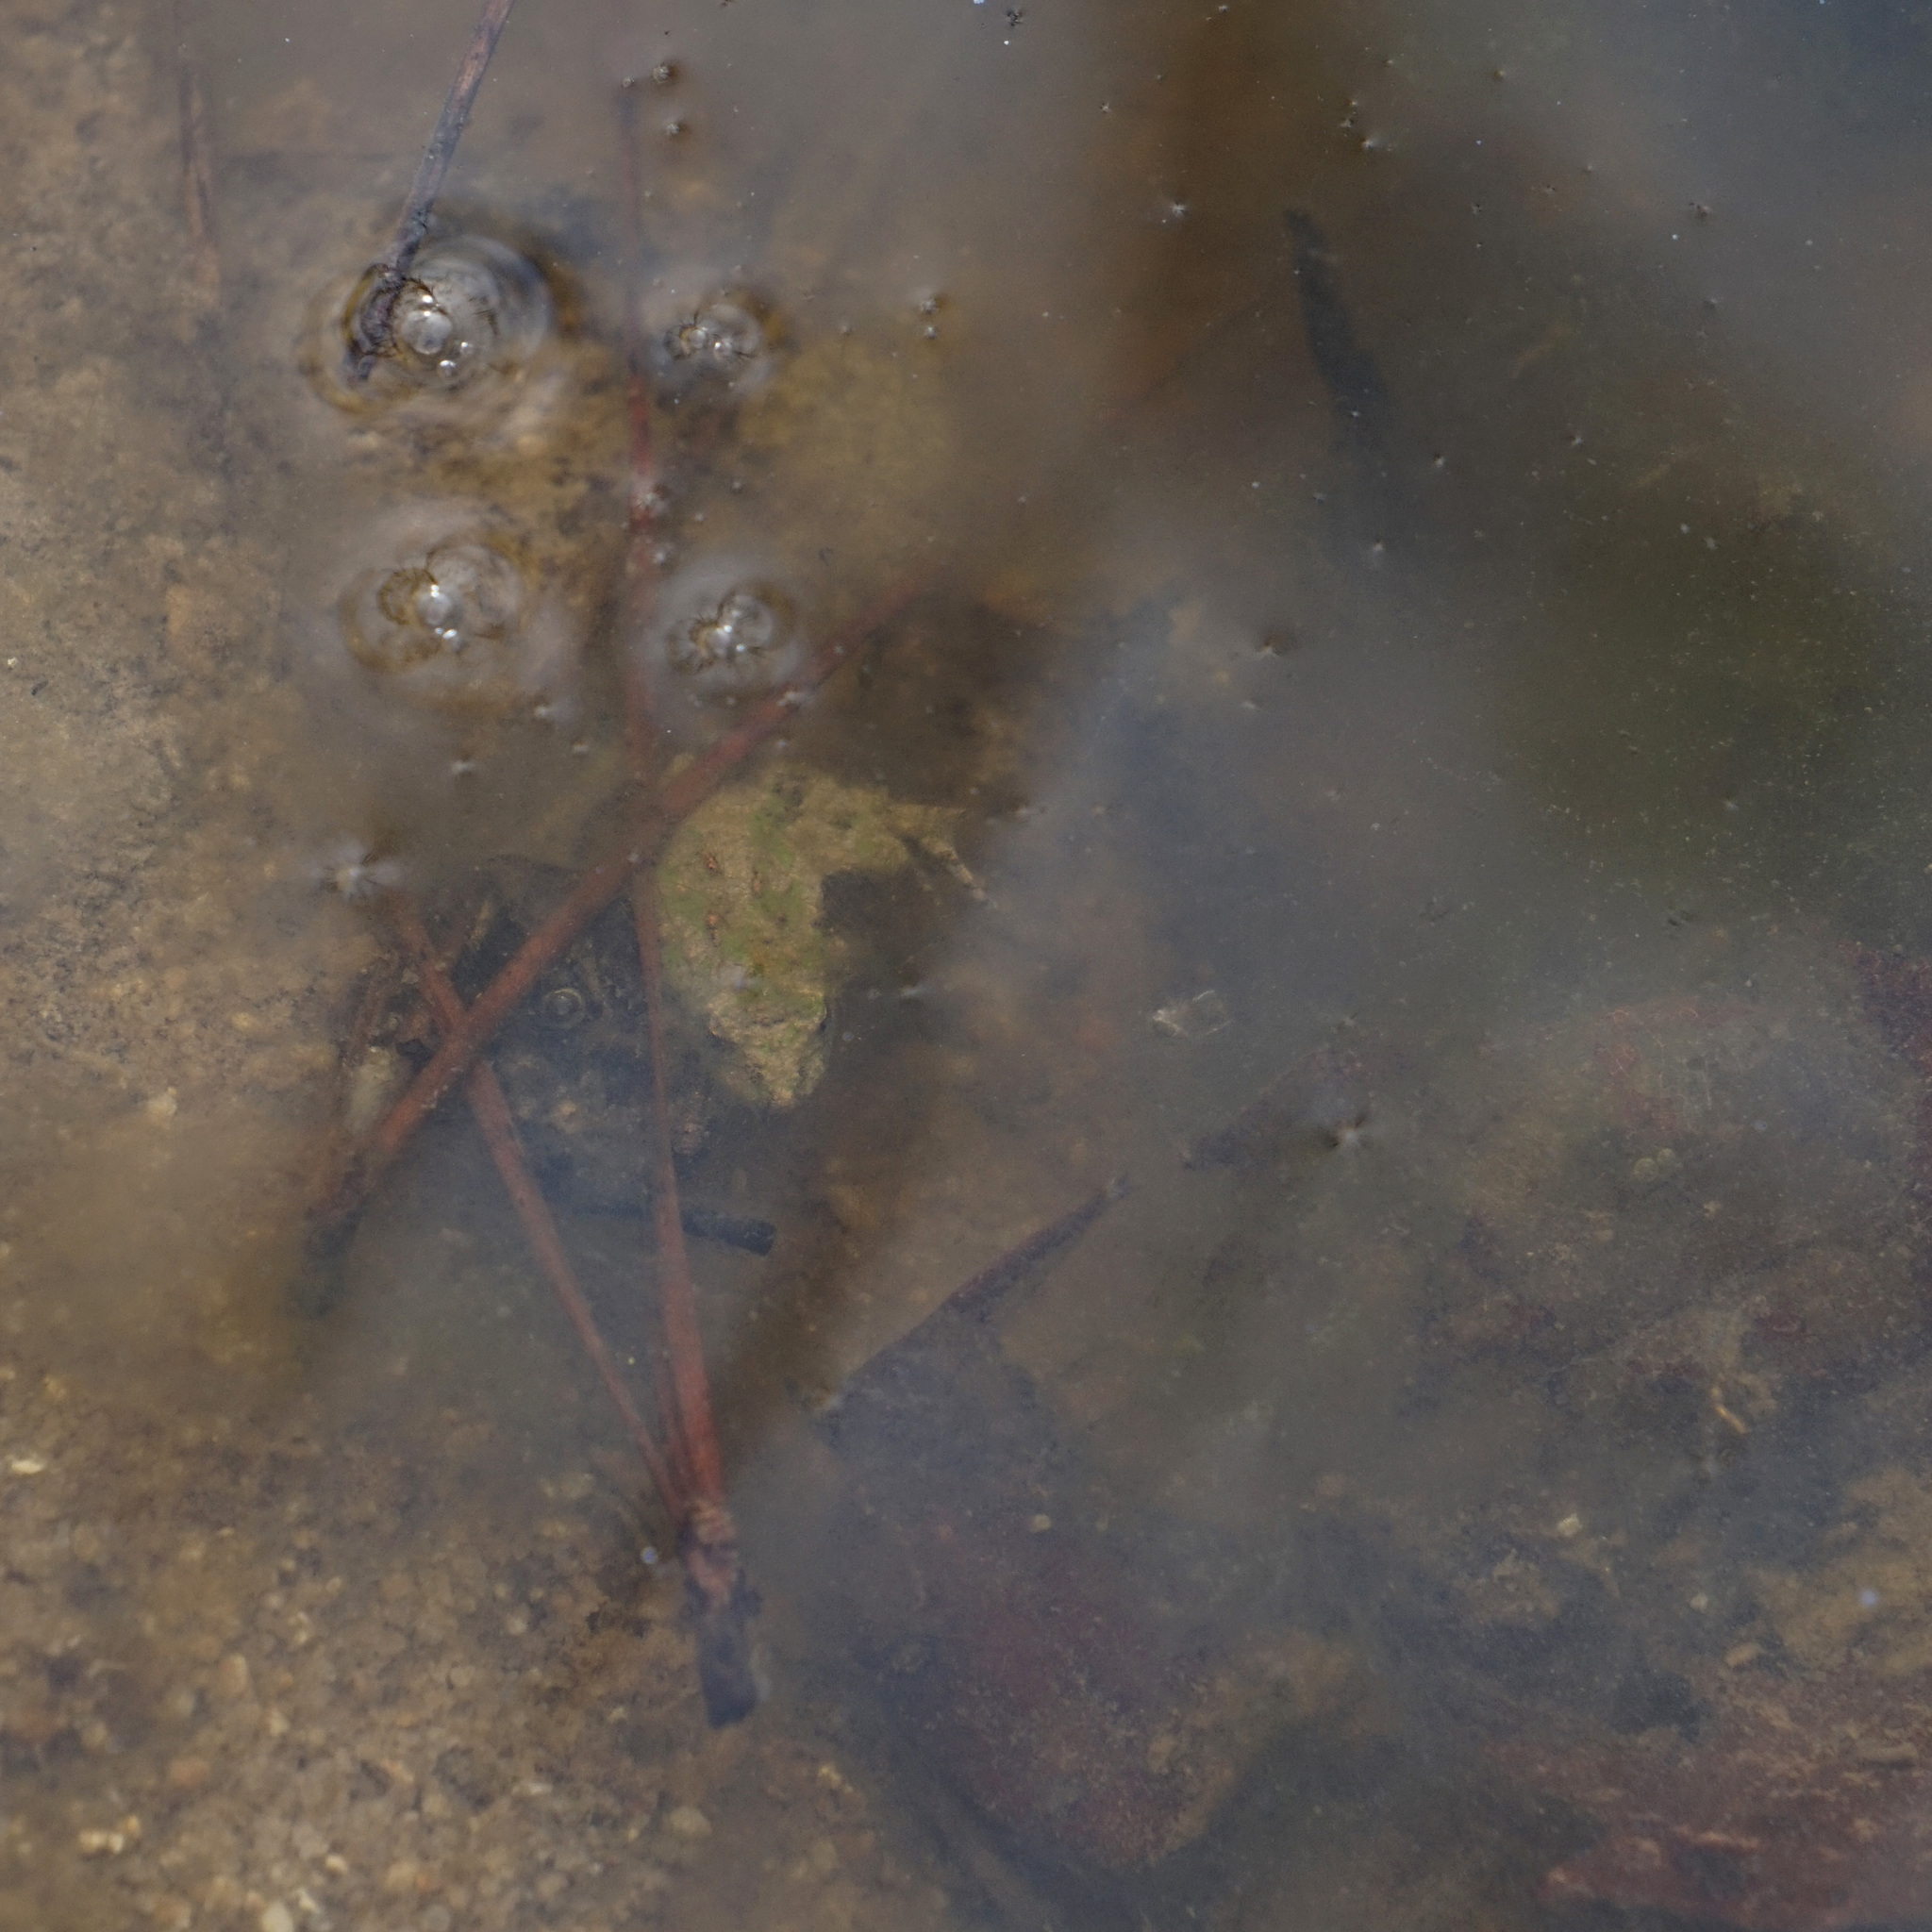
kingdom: Animalia
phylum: Chordata
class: Amphibia
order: Anura
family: Hylidae
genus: Acris
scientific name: Acris crepitans
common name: Northern cricket frog
